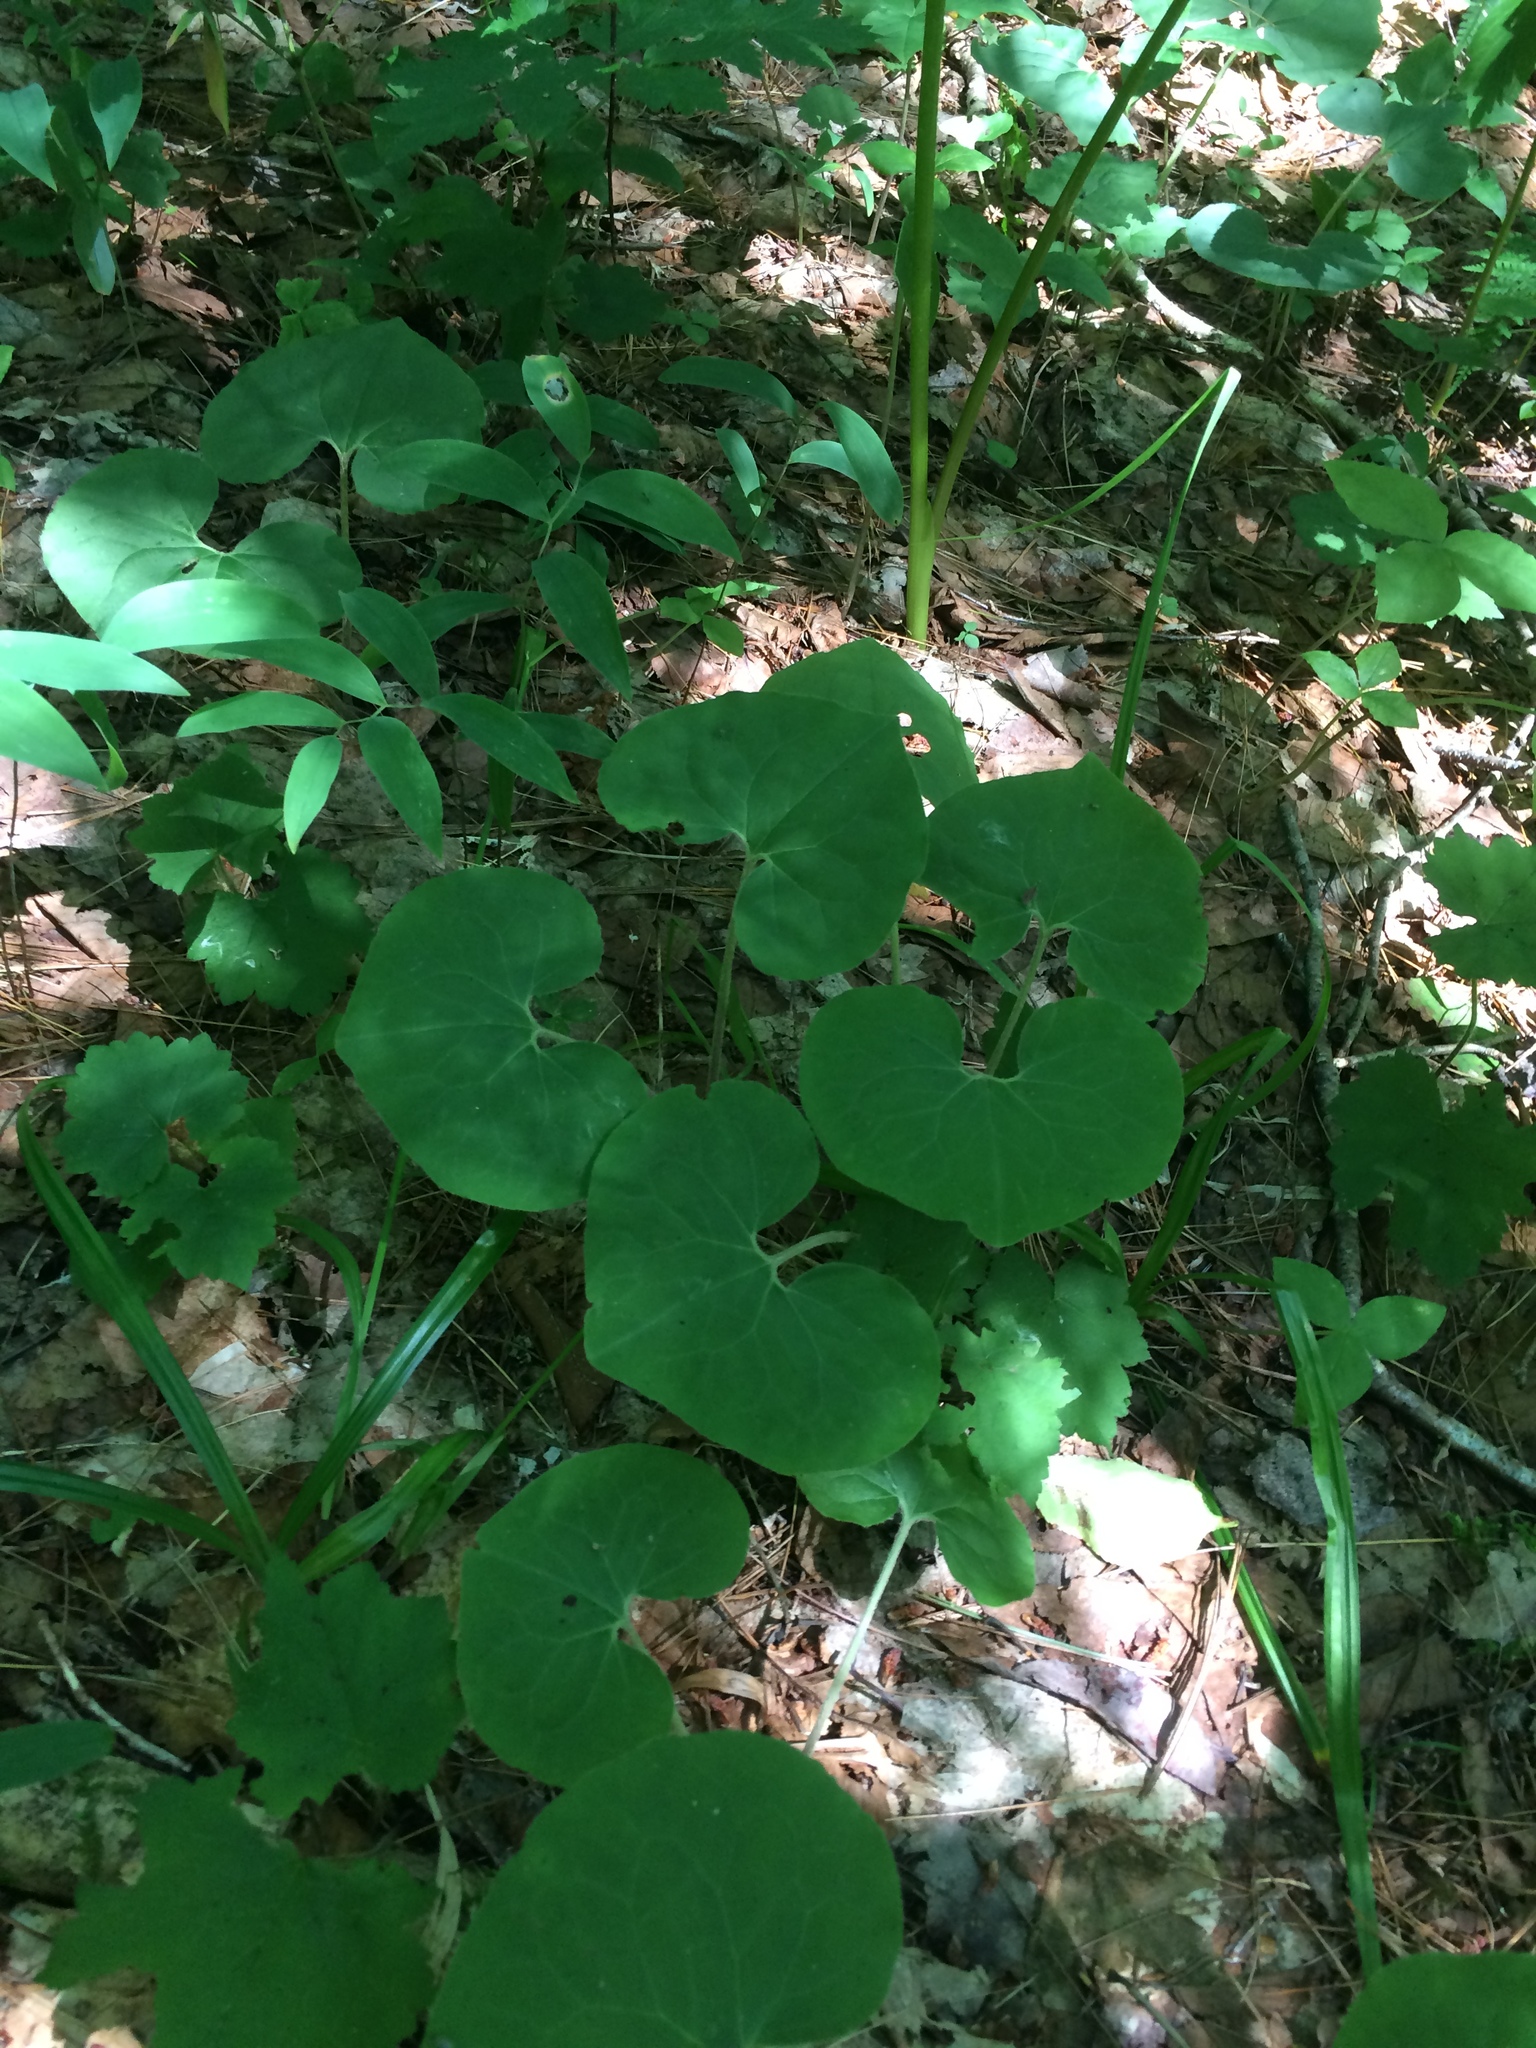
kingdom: Plantae
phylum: Tracheophyta
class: Magnoliopsida
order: Piperales
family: Aristolochiaceae
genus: Asarum
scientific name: Asarum canadense
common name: Wild ginger
